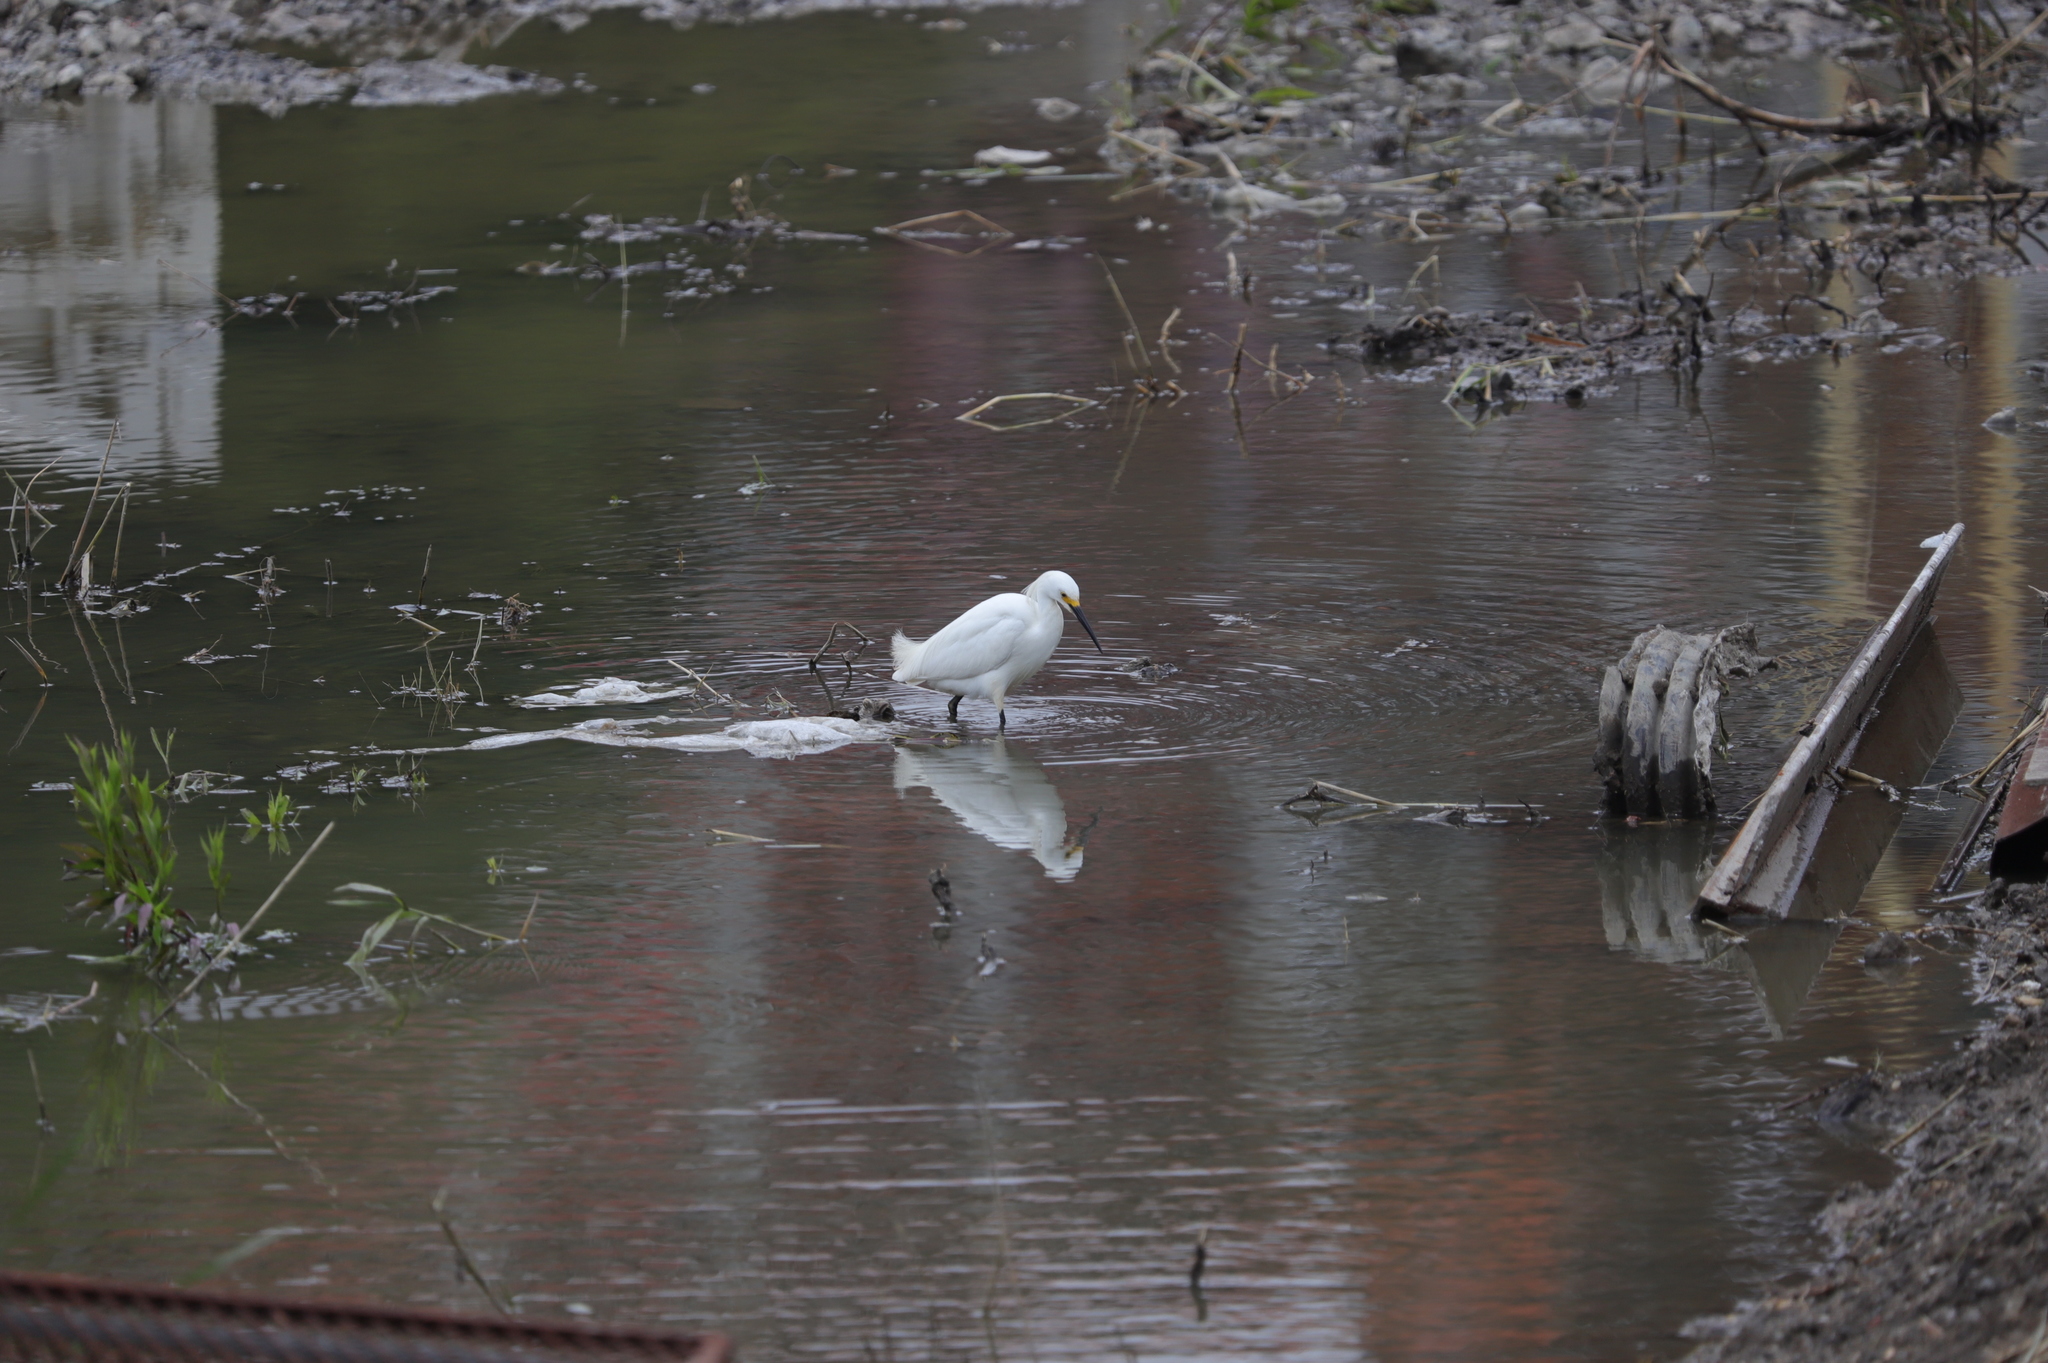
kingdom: Animalia
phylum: Chordata
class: Aves
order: Pelecaniformes
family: Ardeidae
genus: Egretta
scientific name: Egretta thula
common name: Snowy egret
